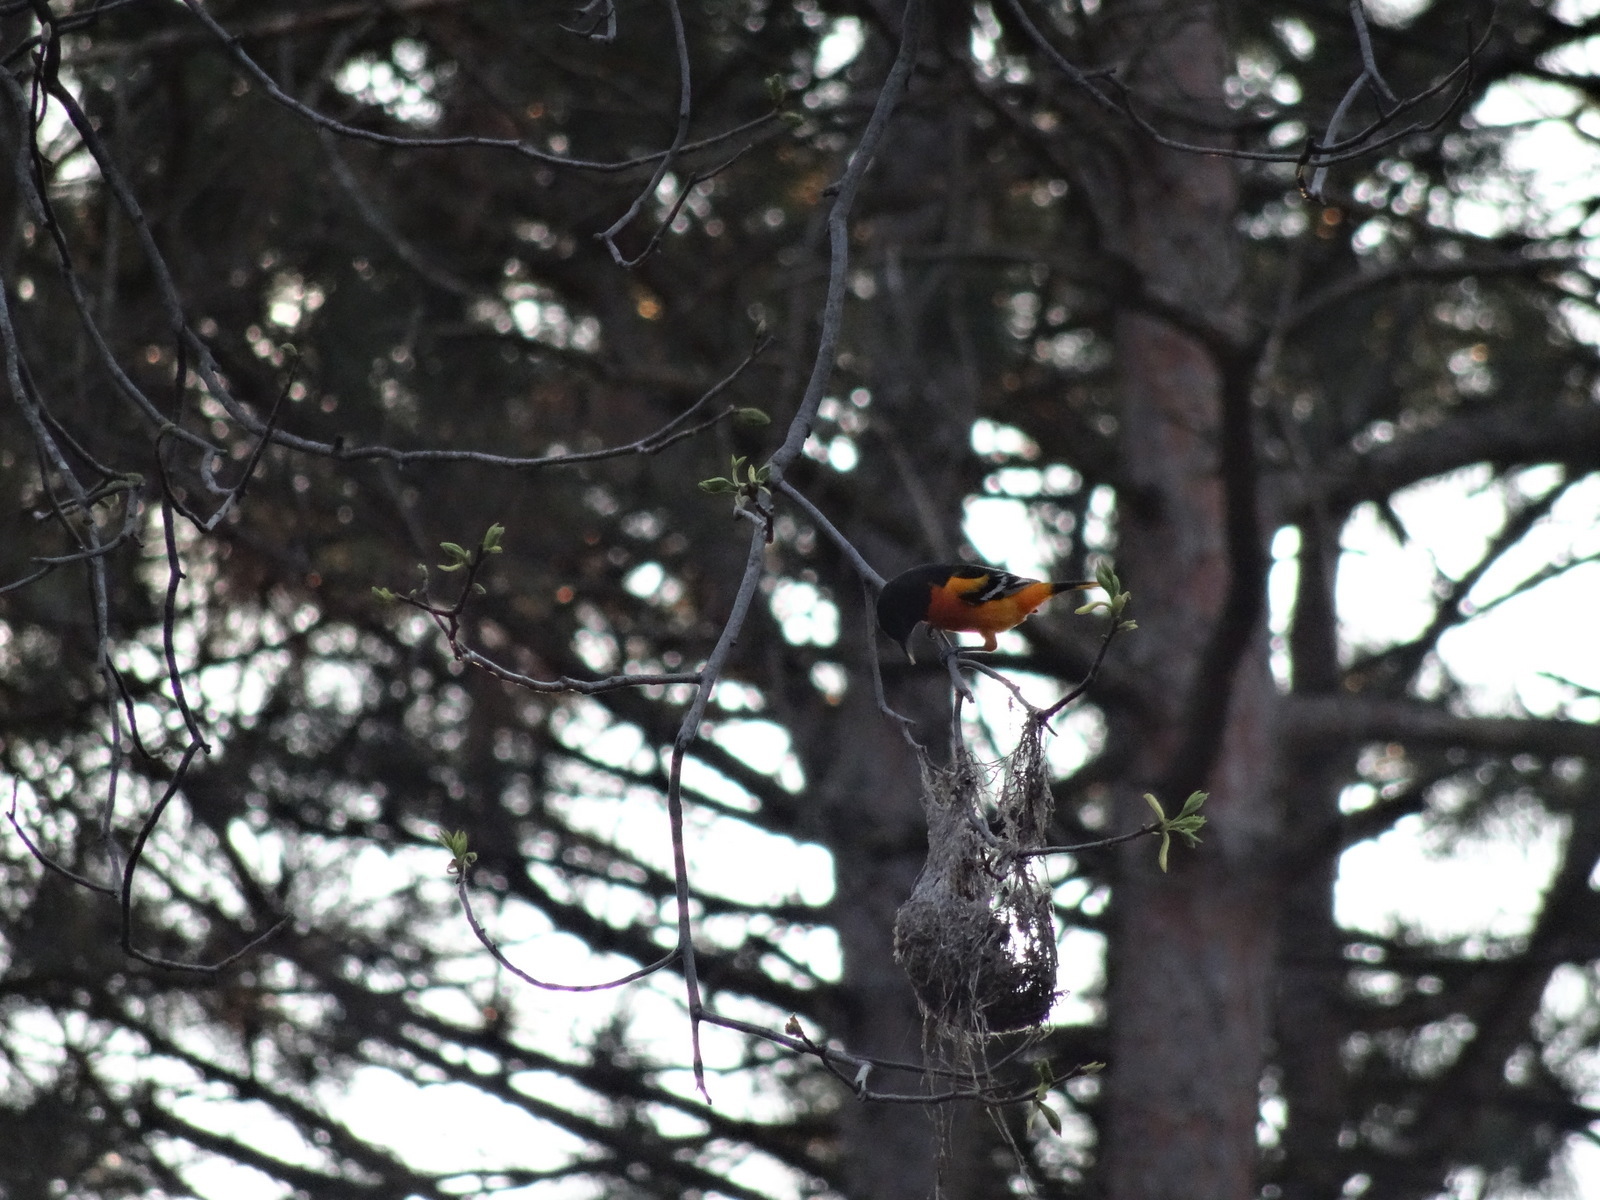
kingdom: Animalia
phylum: Chordata
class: Aves
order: Passeriformes
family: Icteridae
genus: Icterus
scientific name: Icterus galbula
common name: Baltimore oriole
